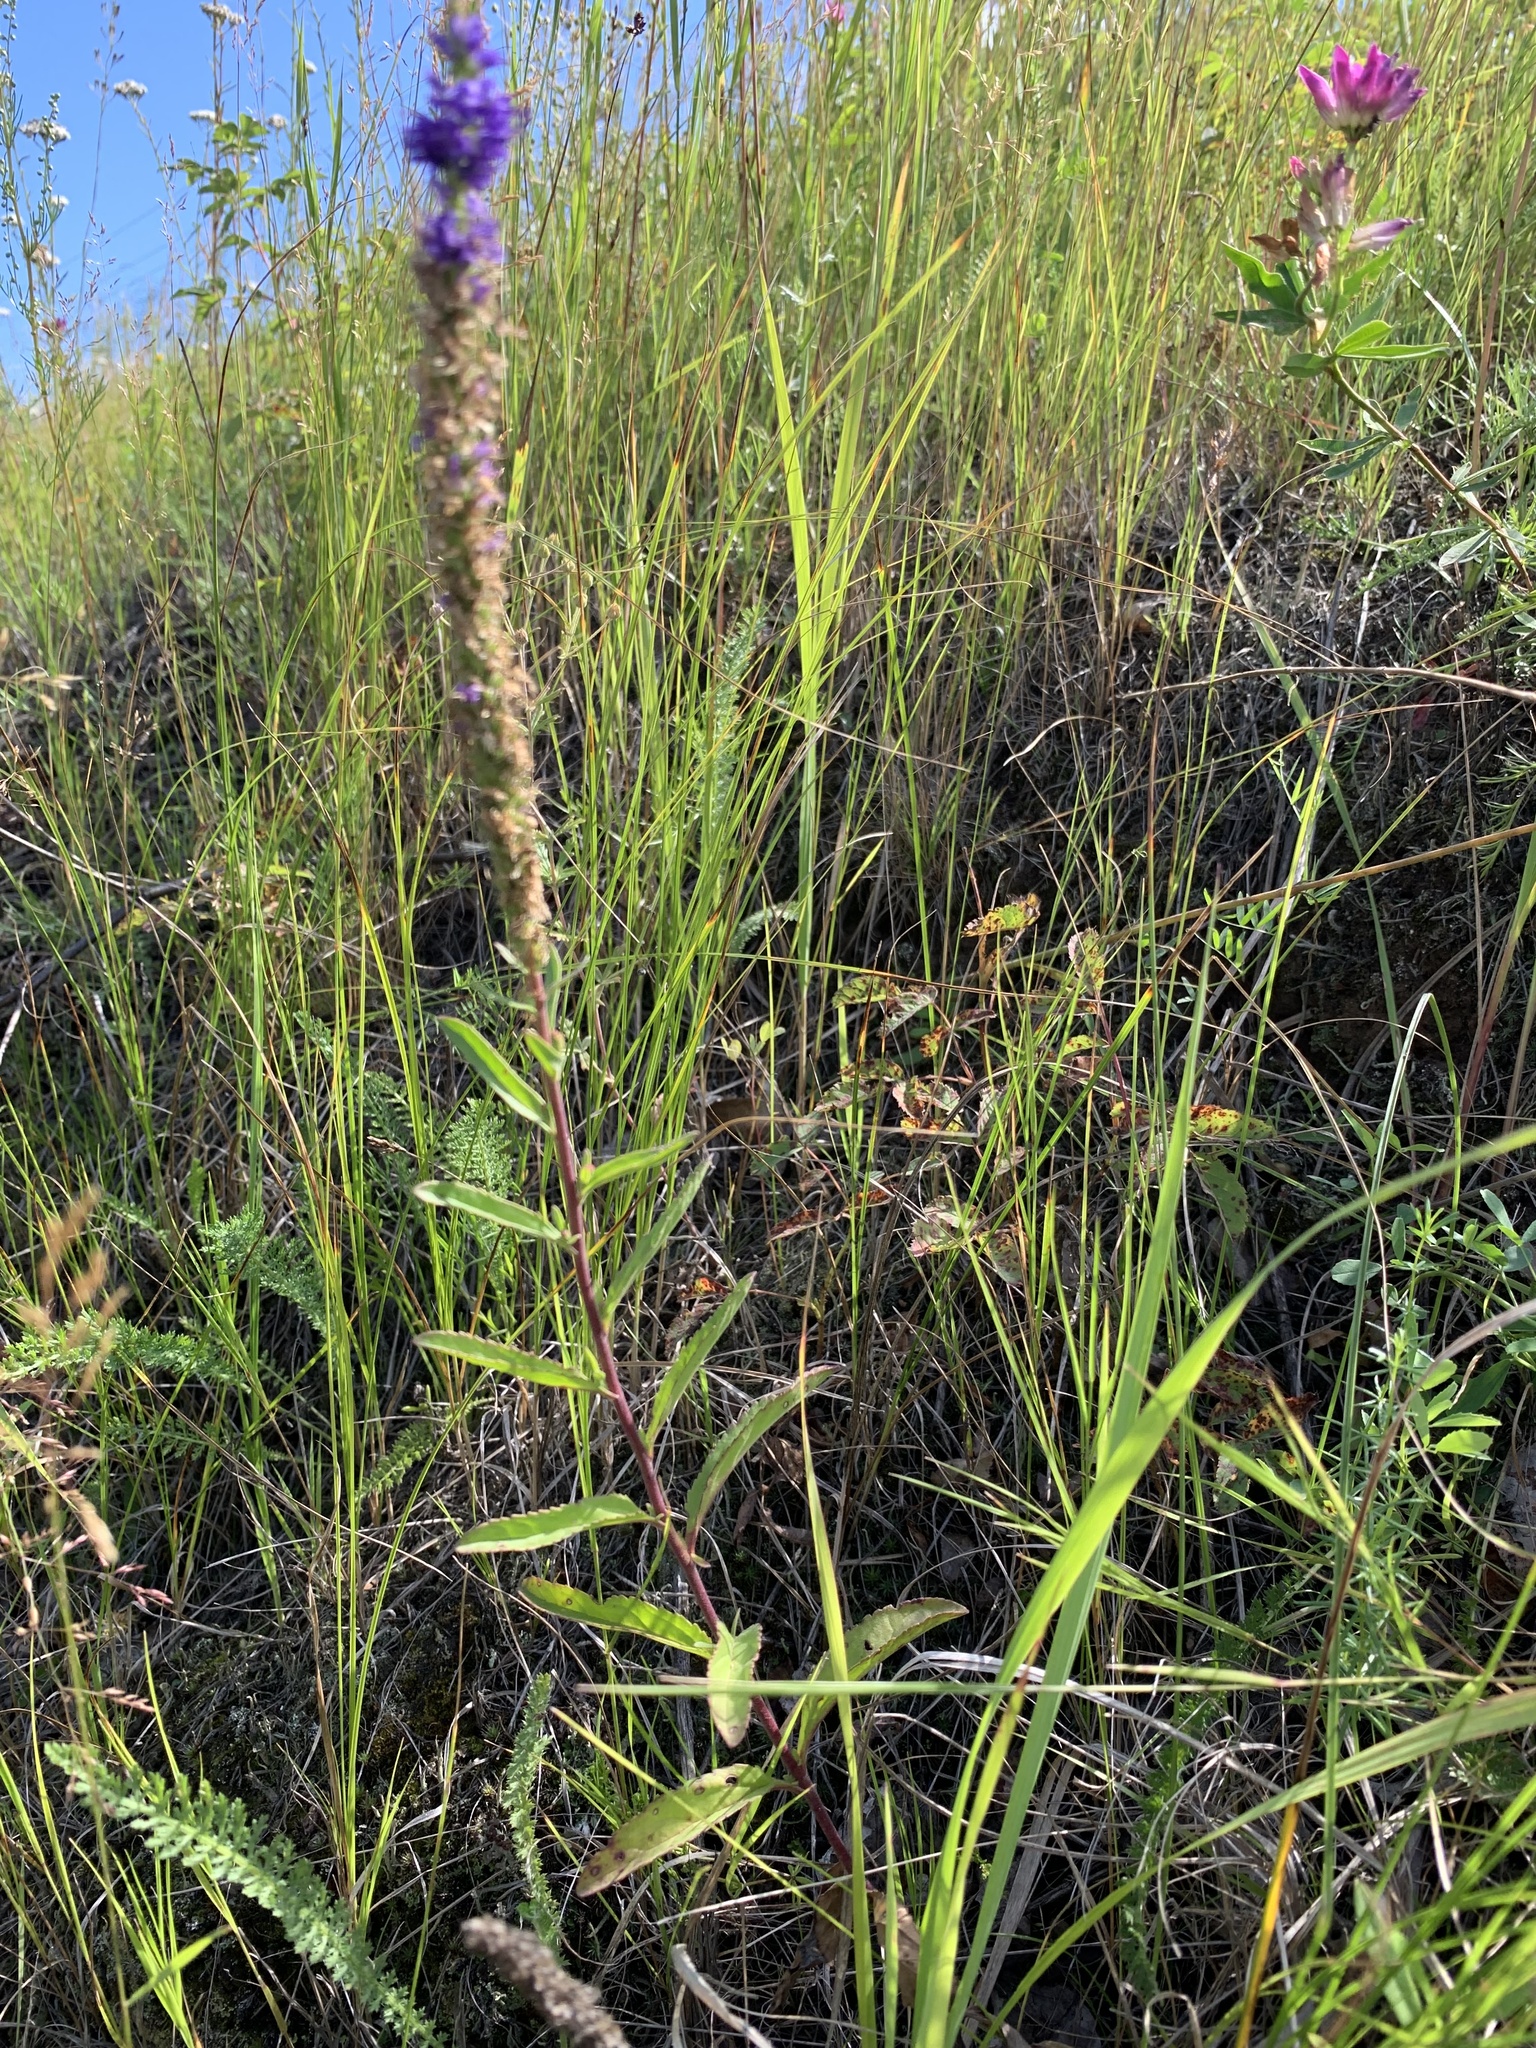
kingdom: Plantae
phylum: Tracheophyta
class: Magnoliopsida
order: Lamiales
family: Plantaginaceae
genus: Veronica
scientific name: Veronica spicata
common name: Spiked speedwell
